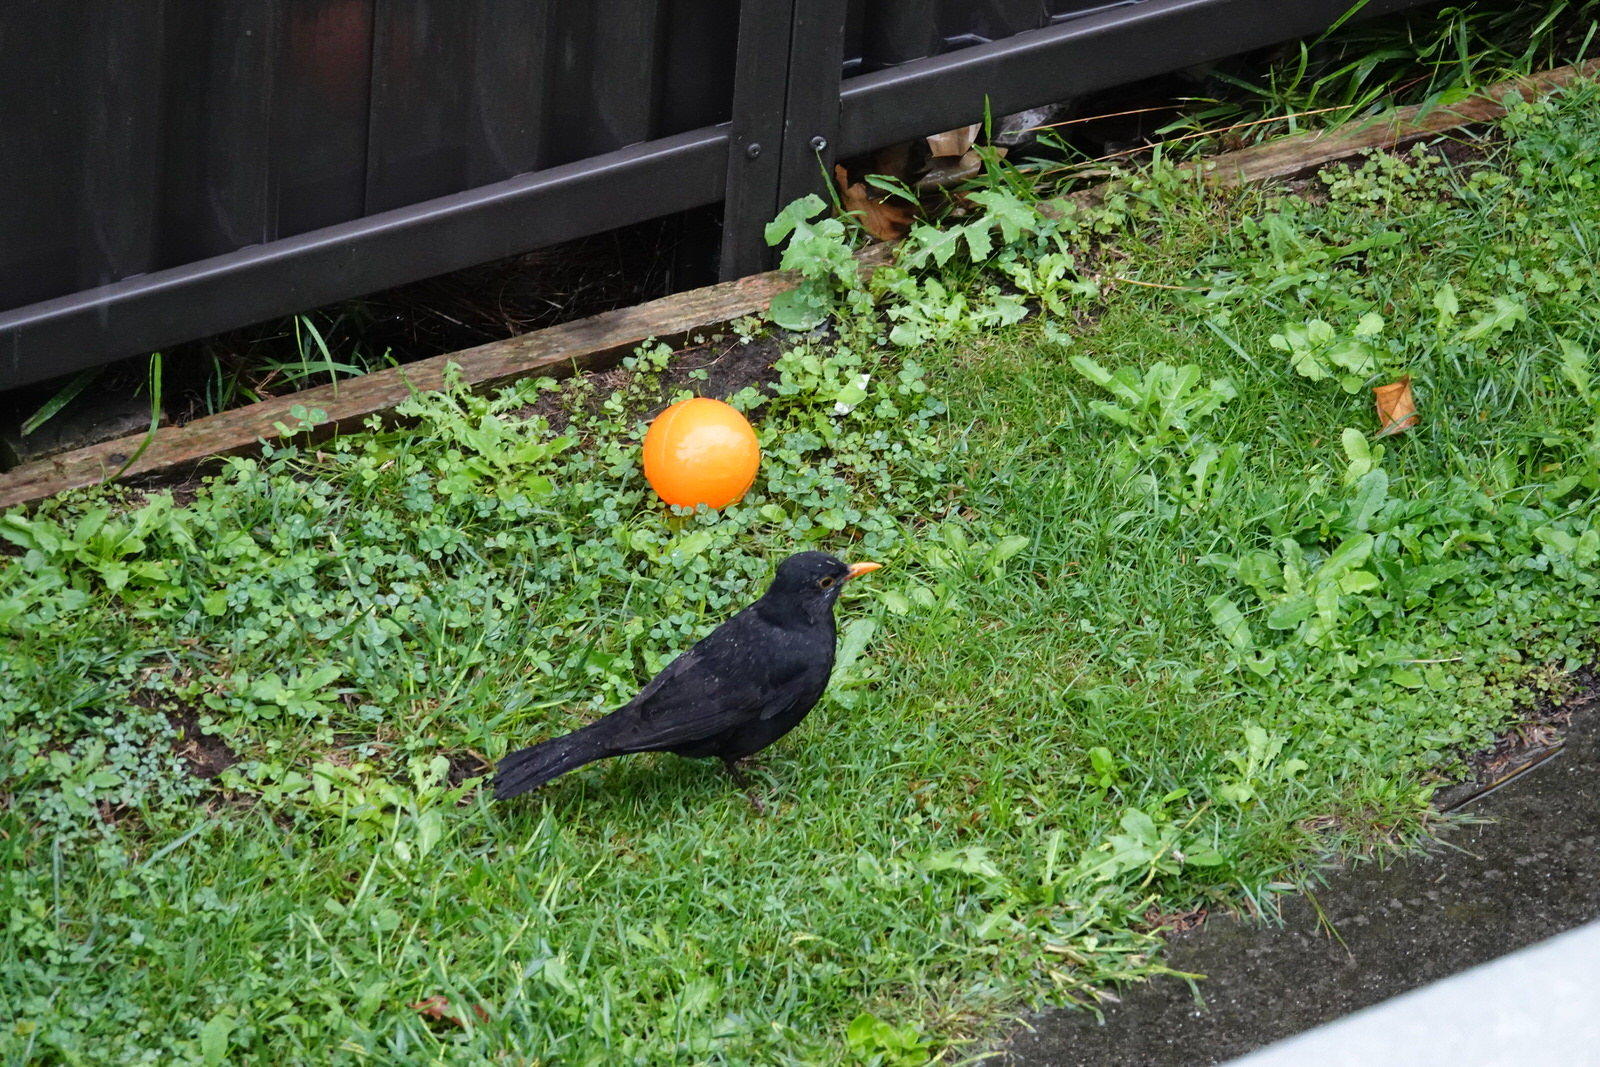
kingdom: Animalia
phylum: Chordata
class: Aves
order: Passeriformes
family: Turdidae
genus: Turdus
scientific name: Turdus merula
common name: Common blackbird
